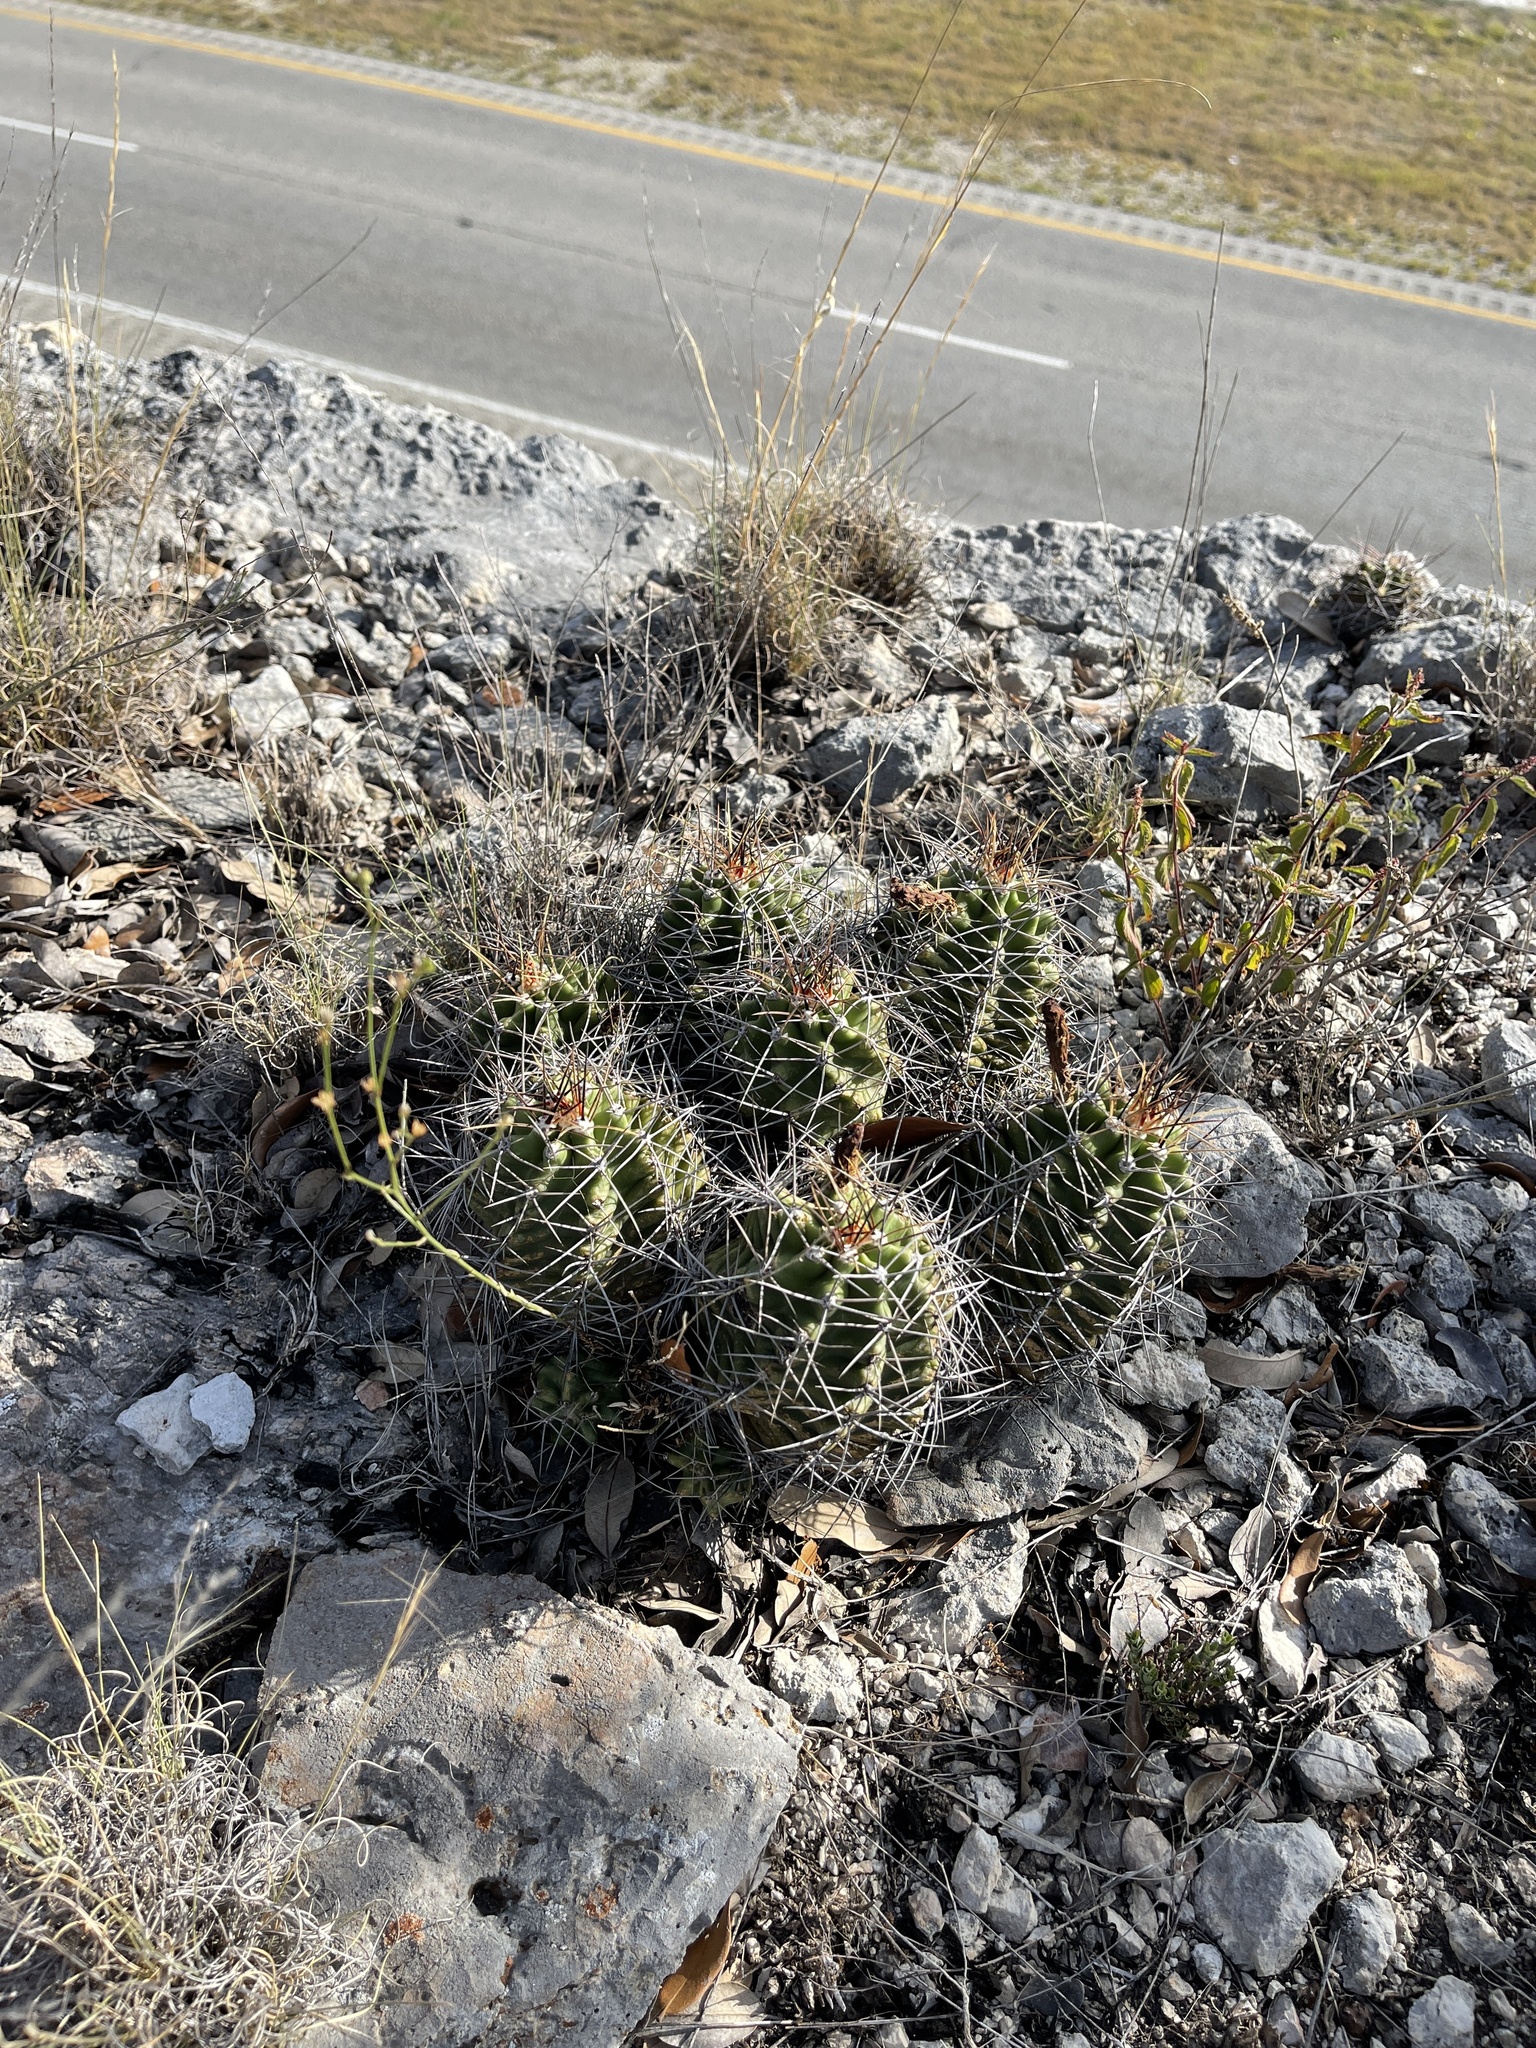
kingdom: Plantae
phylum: Tracheophyta
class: Magnoliopsida
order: Caryophyllales
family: Cactaceae
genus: Echinocereus
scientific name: Echinocereus coccineus
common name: Scarlet hedgehog cactus
